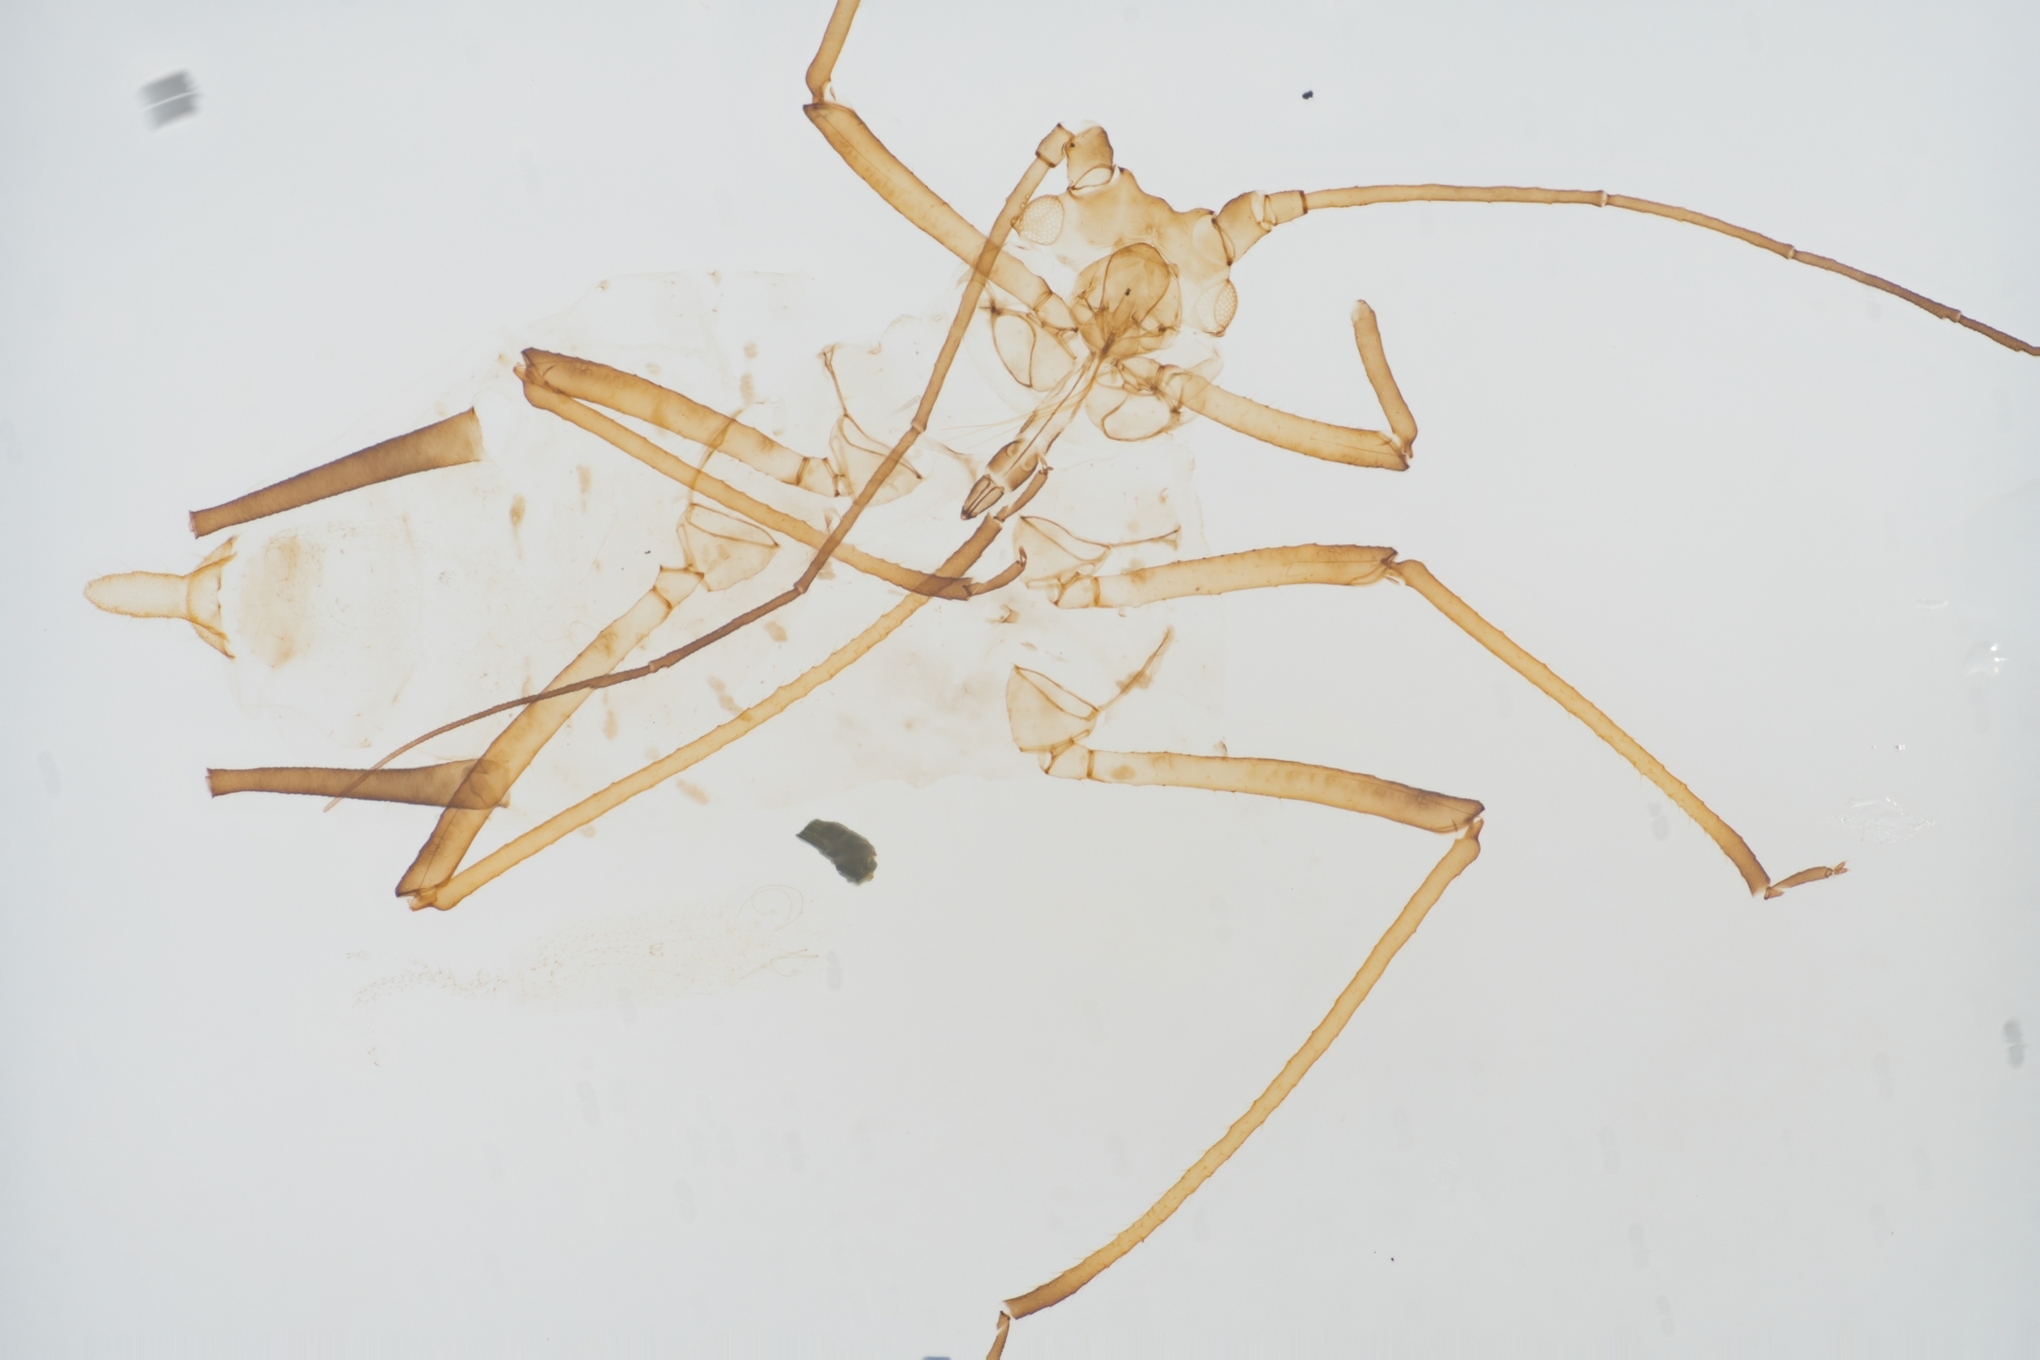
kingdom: Animalia
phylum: Arthropoda
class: Insecta
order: Hemiptera
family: Aphididae
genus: Sitobion
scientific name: Sitobion fragariae
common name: Blackberry cereal aphid
